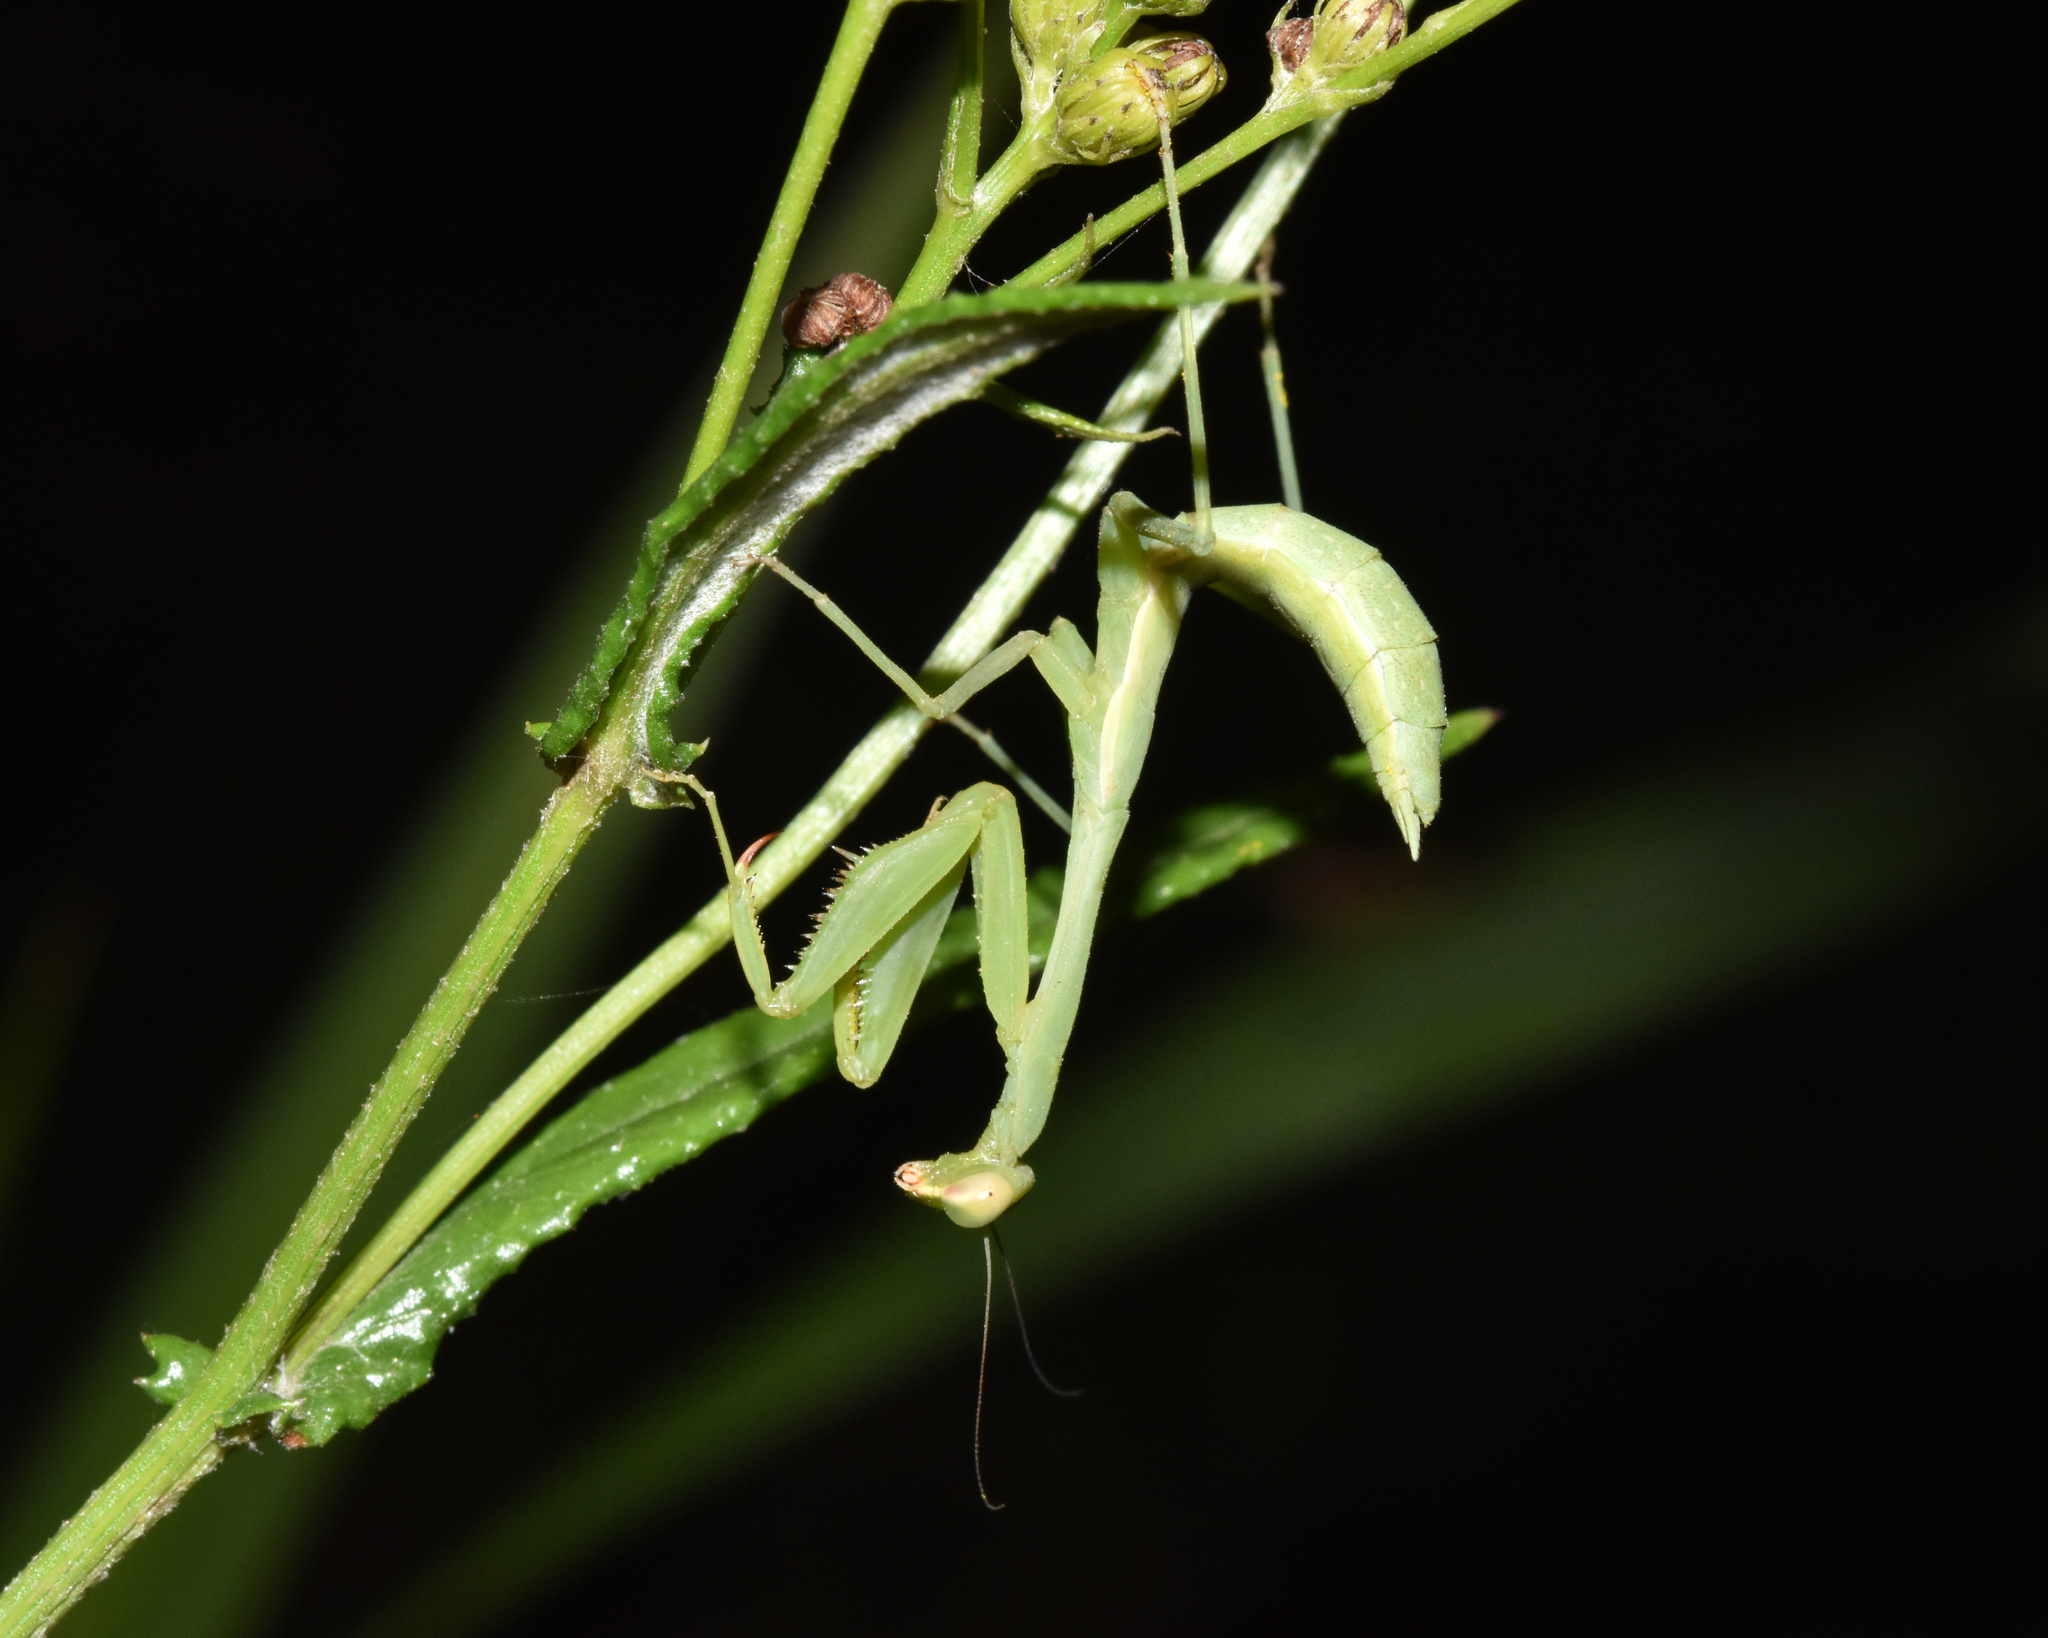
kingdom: Animalia
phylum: Arthropoda
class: Insecta
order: Mantodea
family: Miomantidae
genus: Miomantis
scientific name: Miomantis caffra
